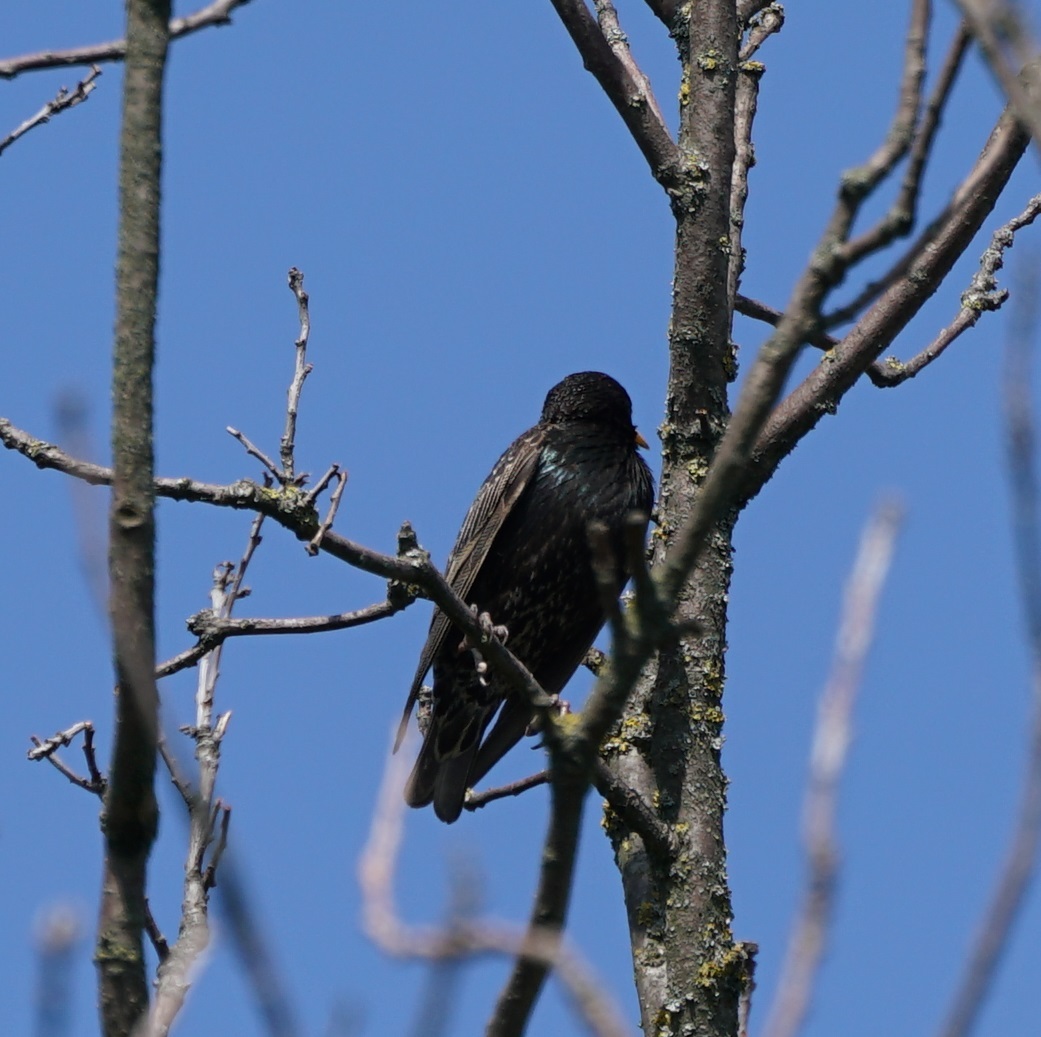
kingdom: Animalia
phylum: Chordata
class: Aves
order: Passeriformes
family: Sturnidae
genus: Sturnus
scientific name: Sturnus vulgaris
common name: Common starling
